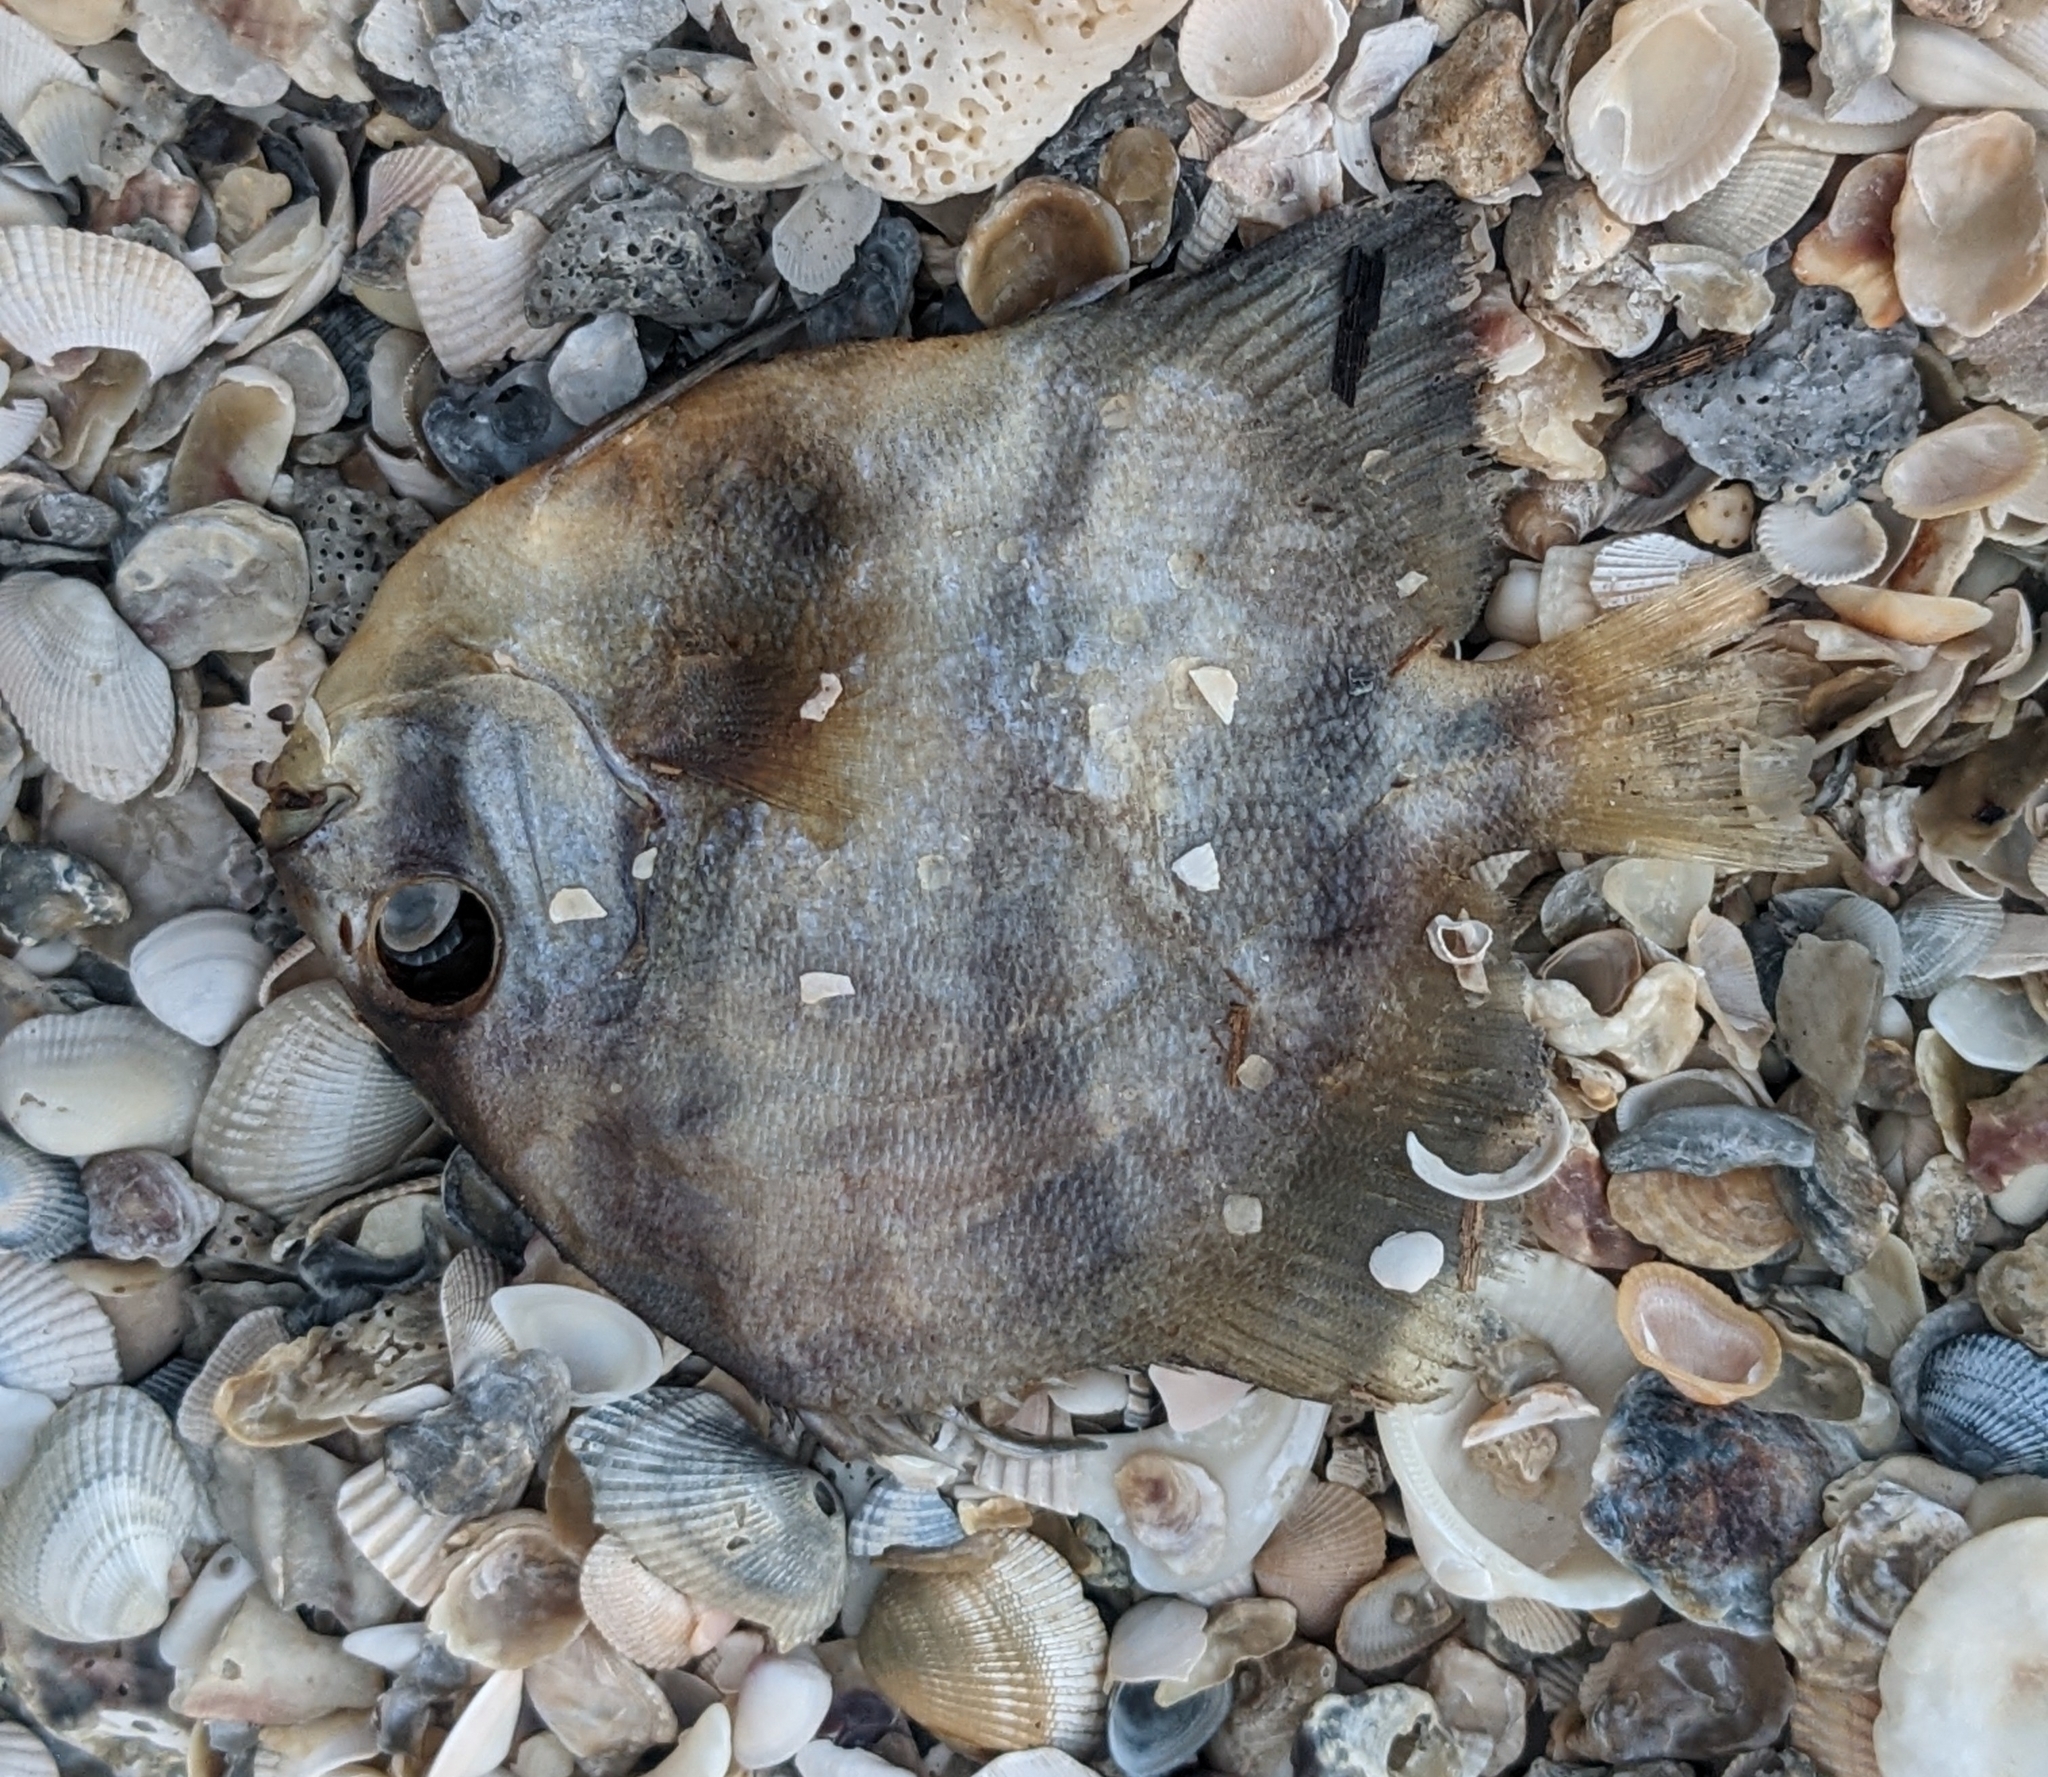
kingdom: Animalia
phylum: Chordata
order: Perciformes
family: Ephippidae
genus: Chaetodipterus
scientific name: Chaetodipterus faber
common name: Ocean cobbler
